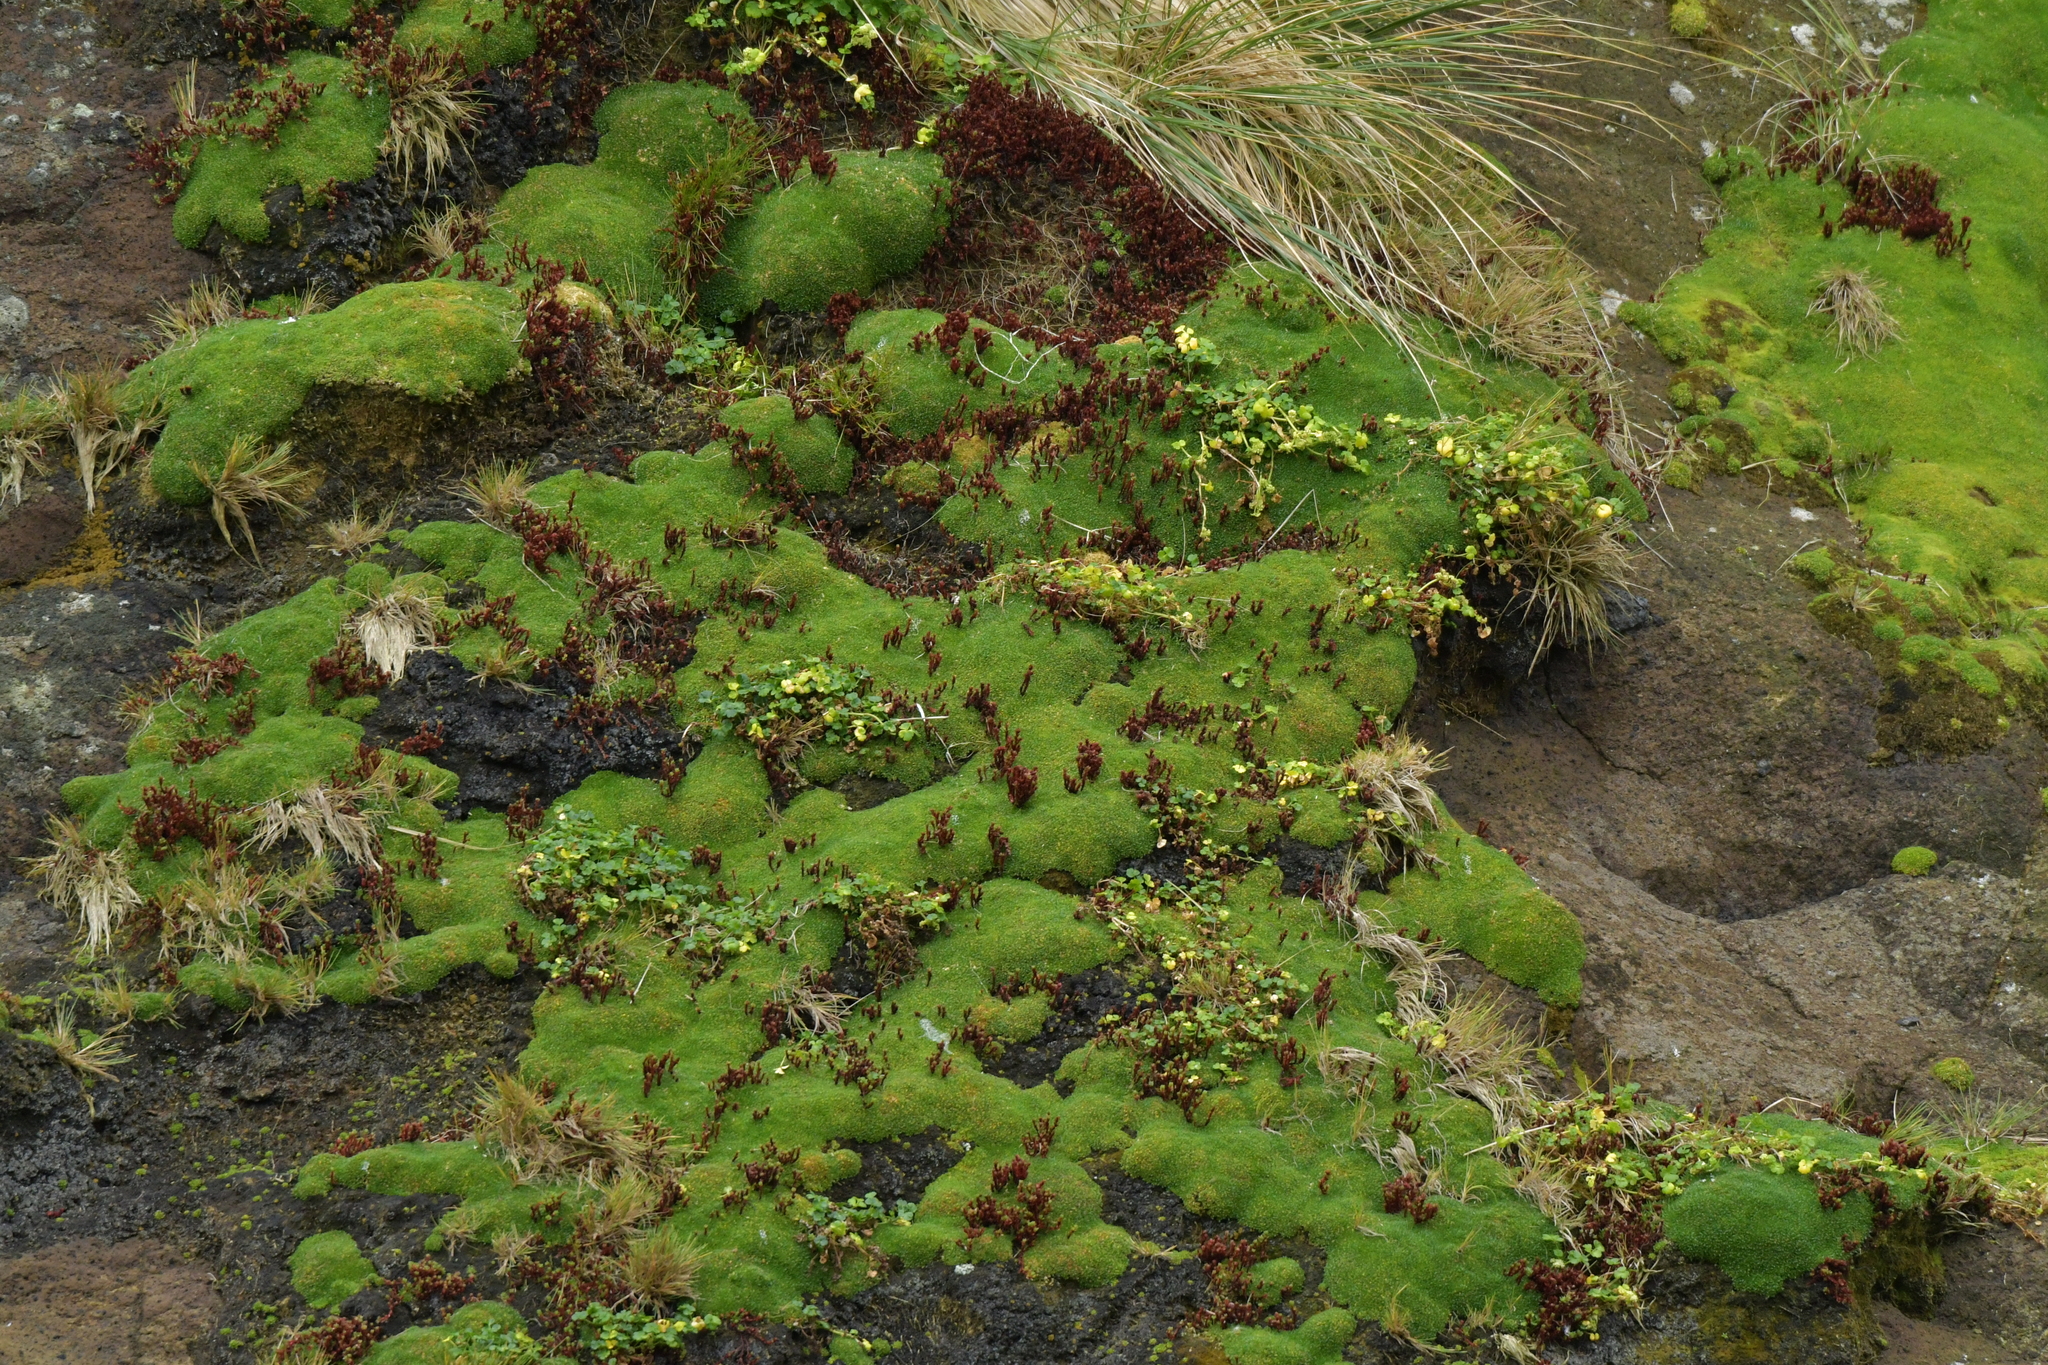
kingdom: Plantae
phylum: Tracheophyta
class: Magnoliopsida
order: Apiales
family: Apiaceae
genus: Apium
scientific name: Apium prostratum
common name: Prostrate marshwort
